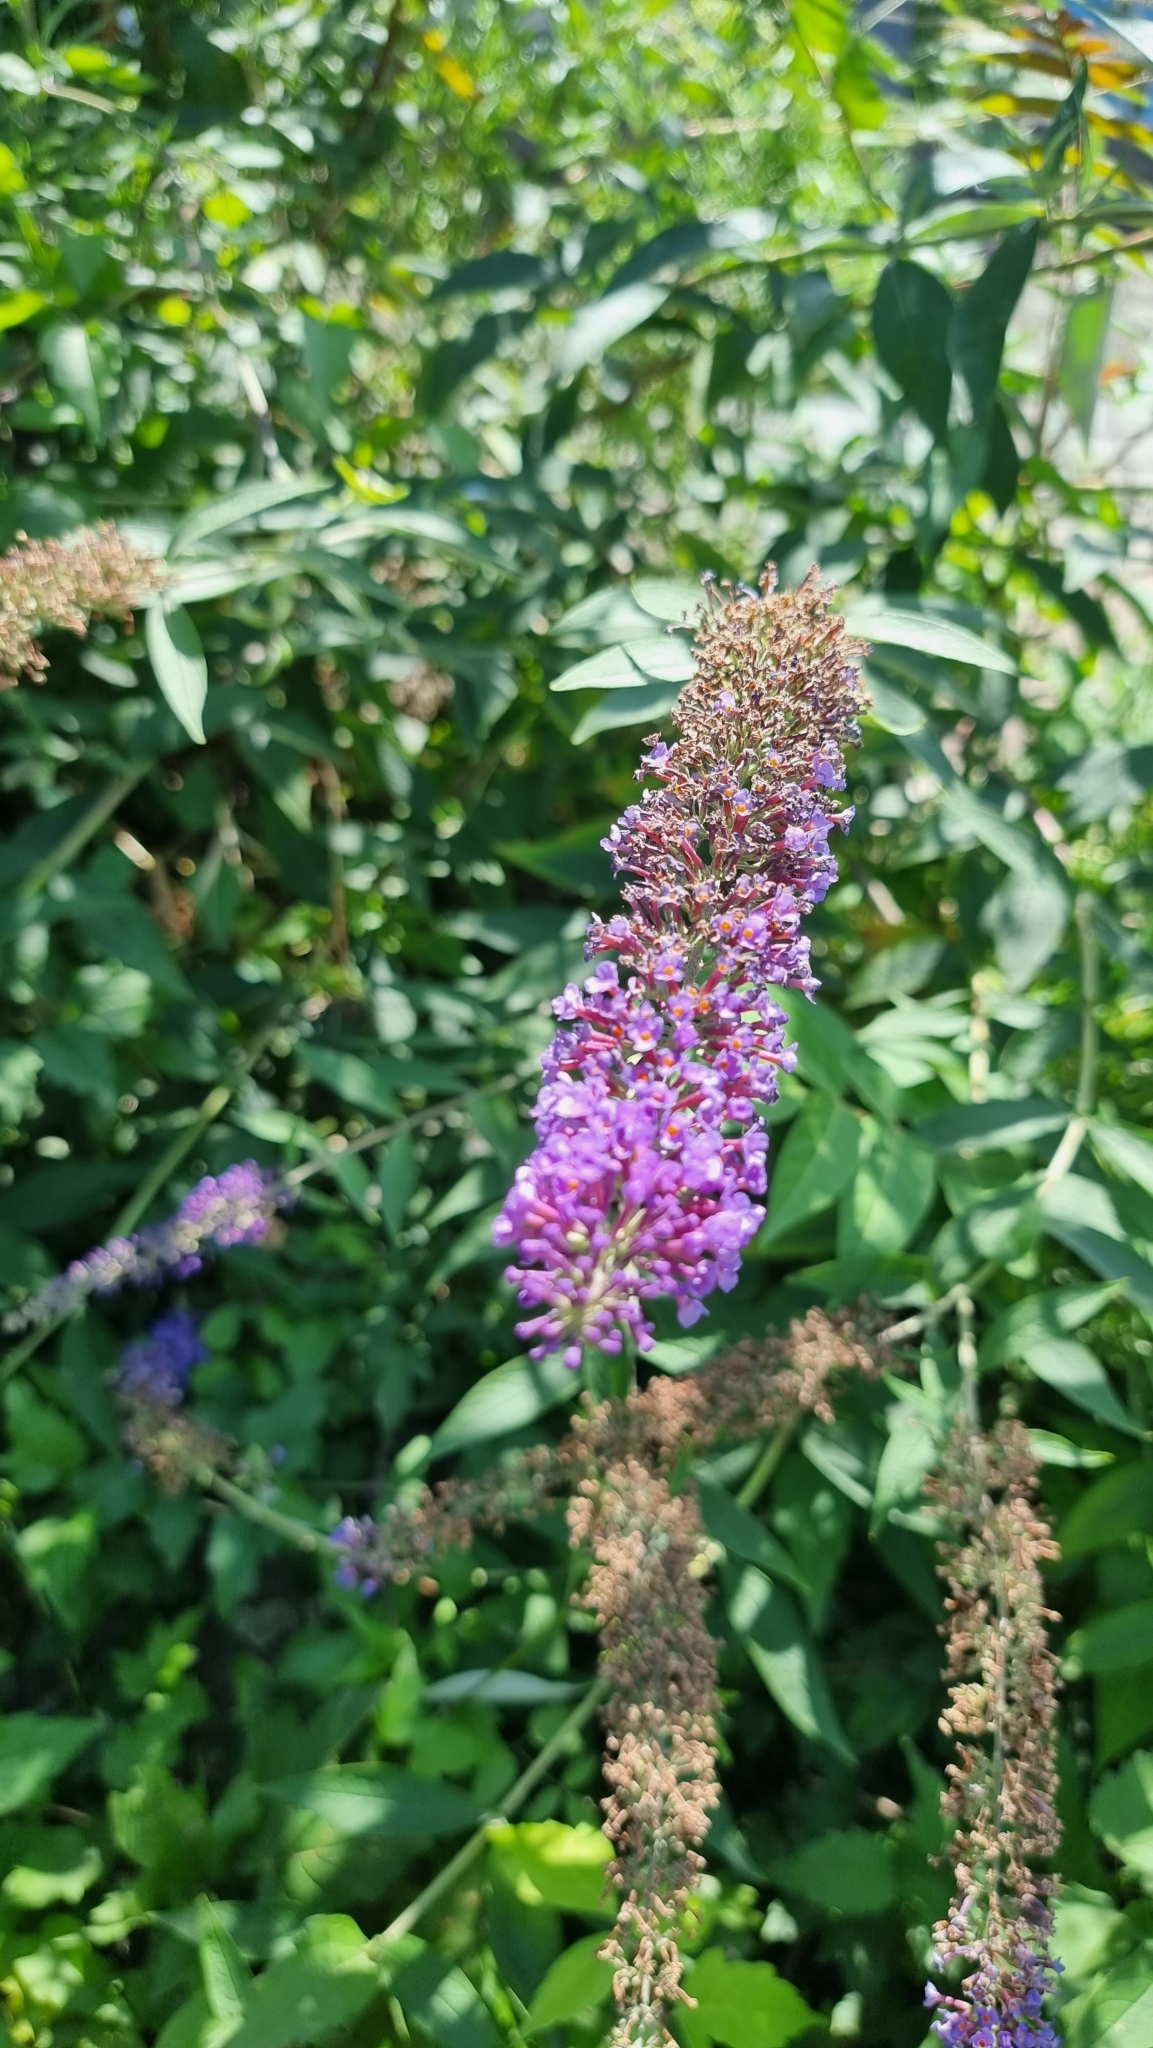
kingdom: Plantae
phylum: Tracheophyta
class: Magnoliopsida
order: Lamiales
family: Scrophulariaceae
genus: Buddleja
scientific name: Buddleja davidii
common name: Butterfly-bush
